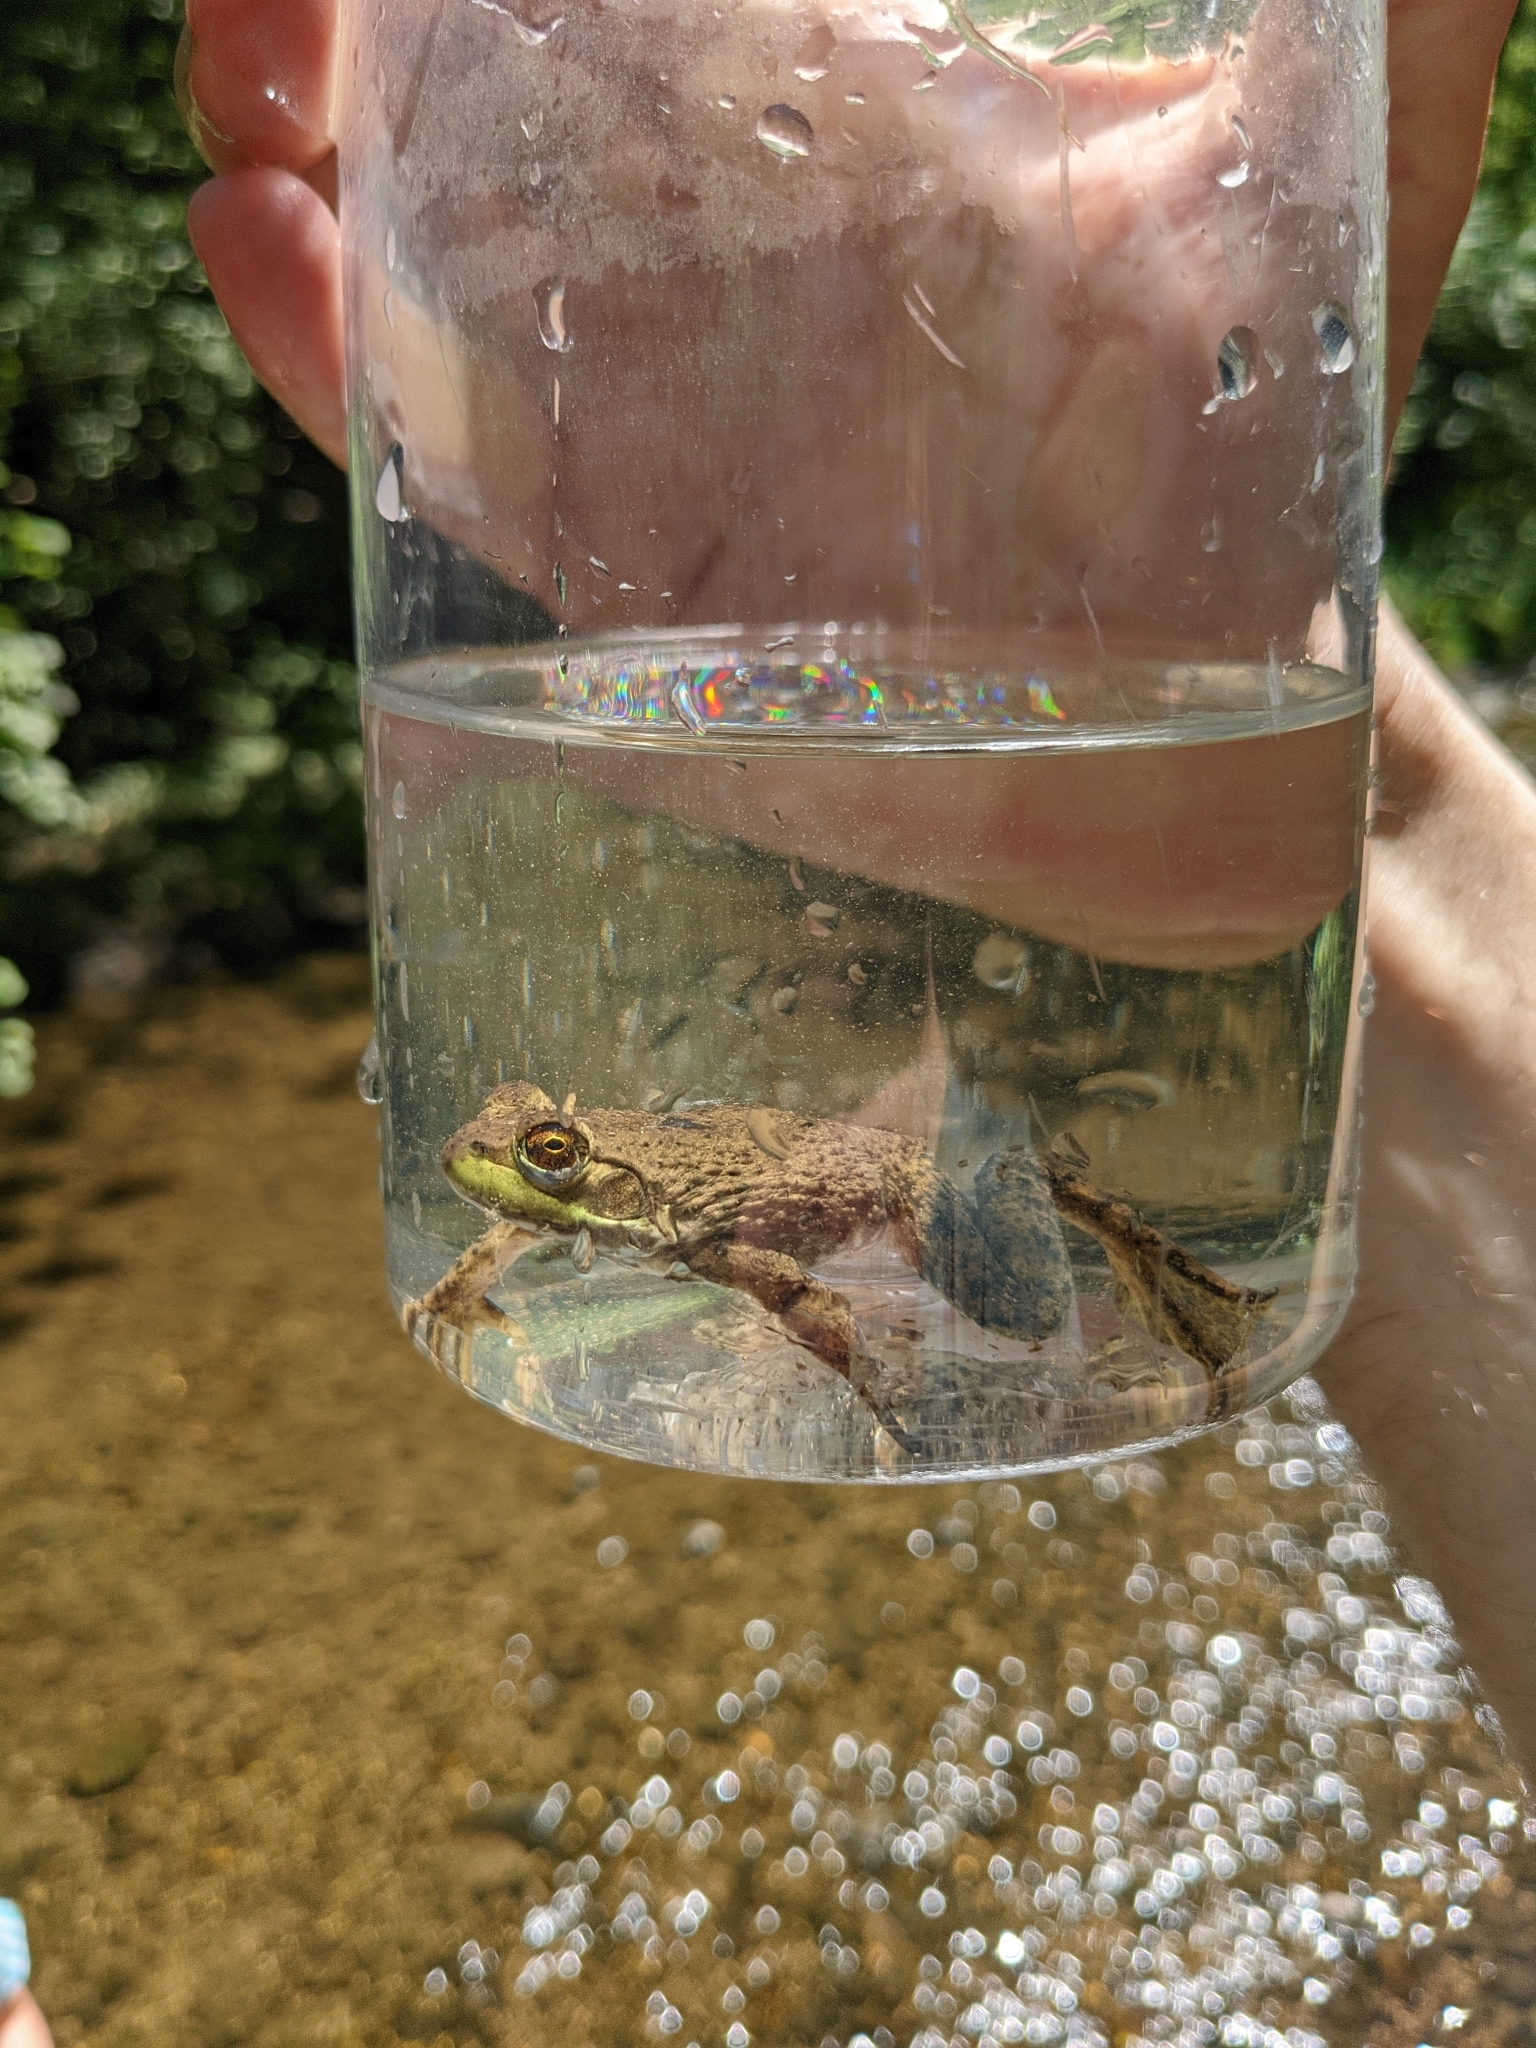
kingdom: Animalia
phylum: Chordata
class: Amphibia
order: Anura
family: Ranidae
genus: Lithobates
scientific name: Lithobates catesbeianus
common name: American bullfrog
